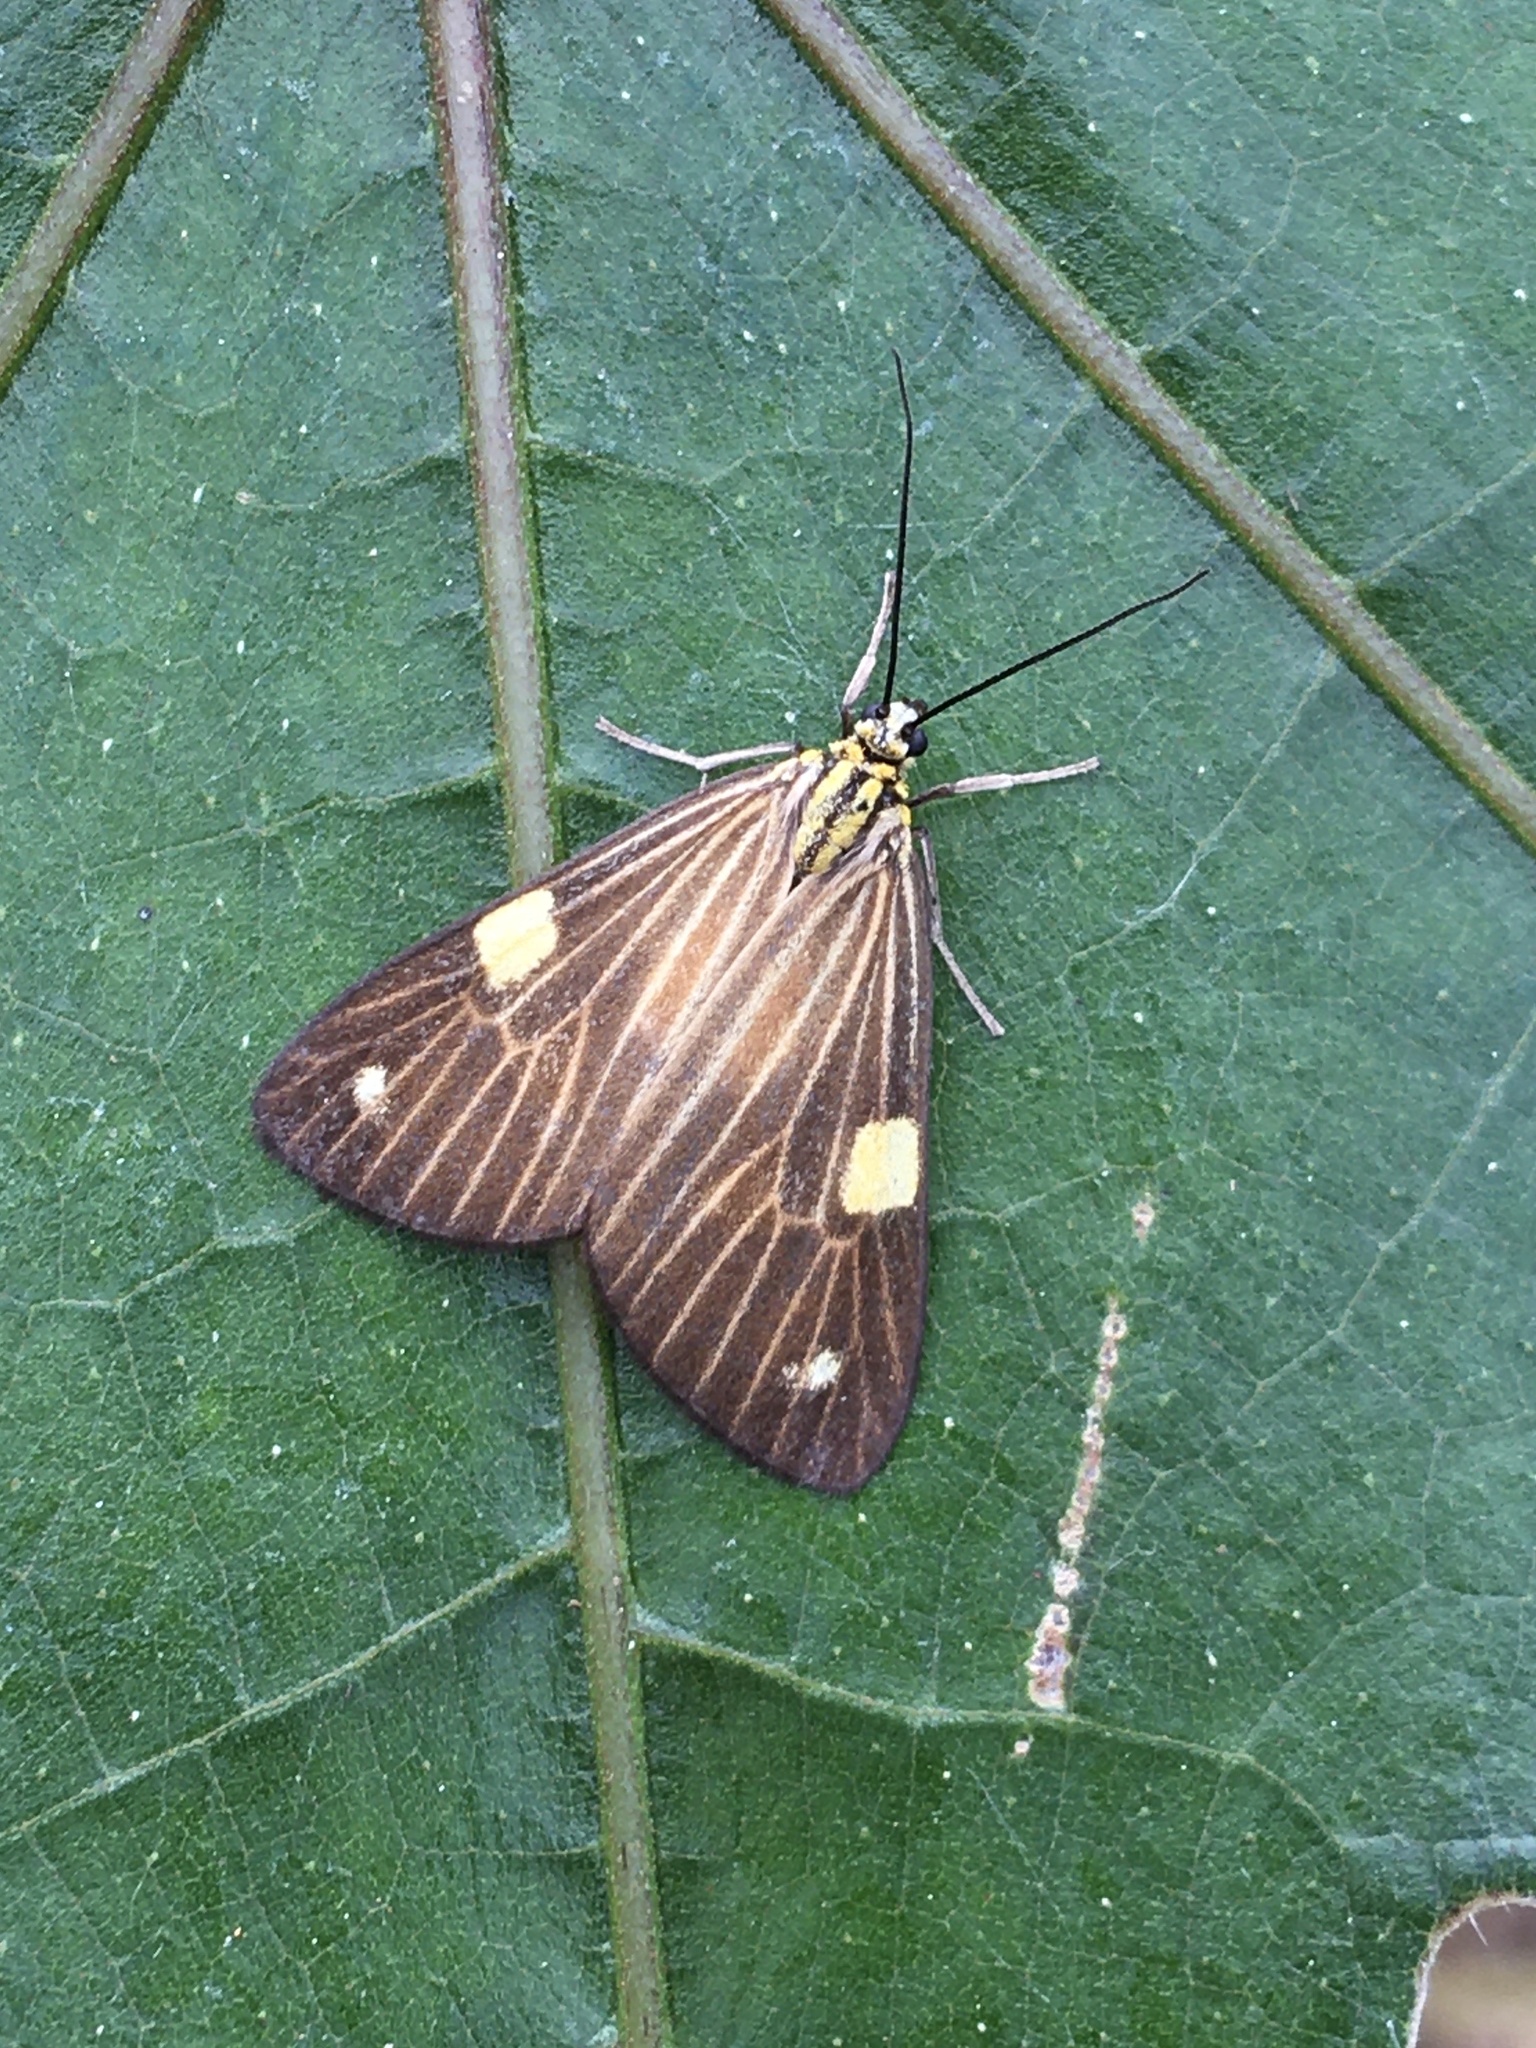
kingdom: Animalia
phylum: Arthropoda
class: Insecta
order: Lepidoptera
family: Notodontidae
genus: Phaeochlaena
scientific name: Phaeochlaena
